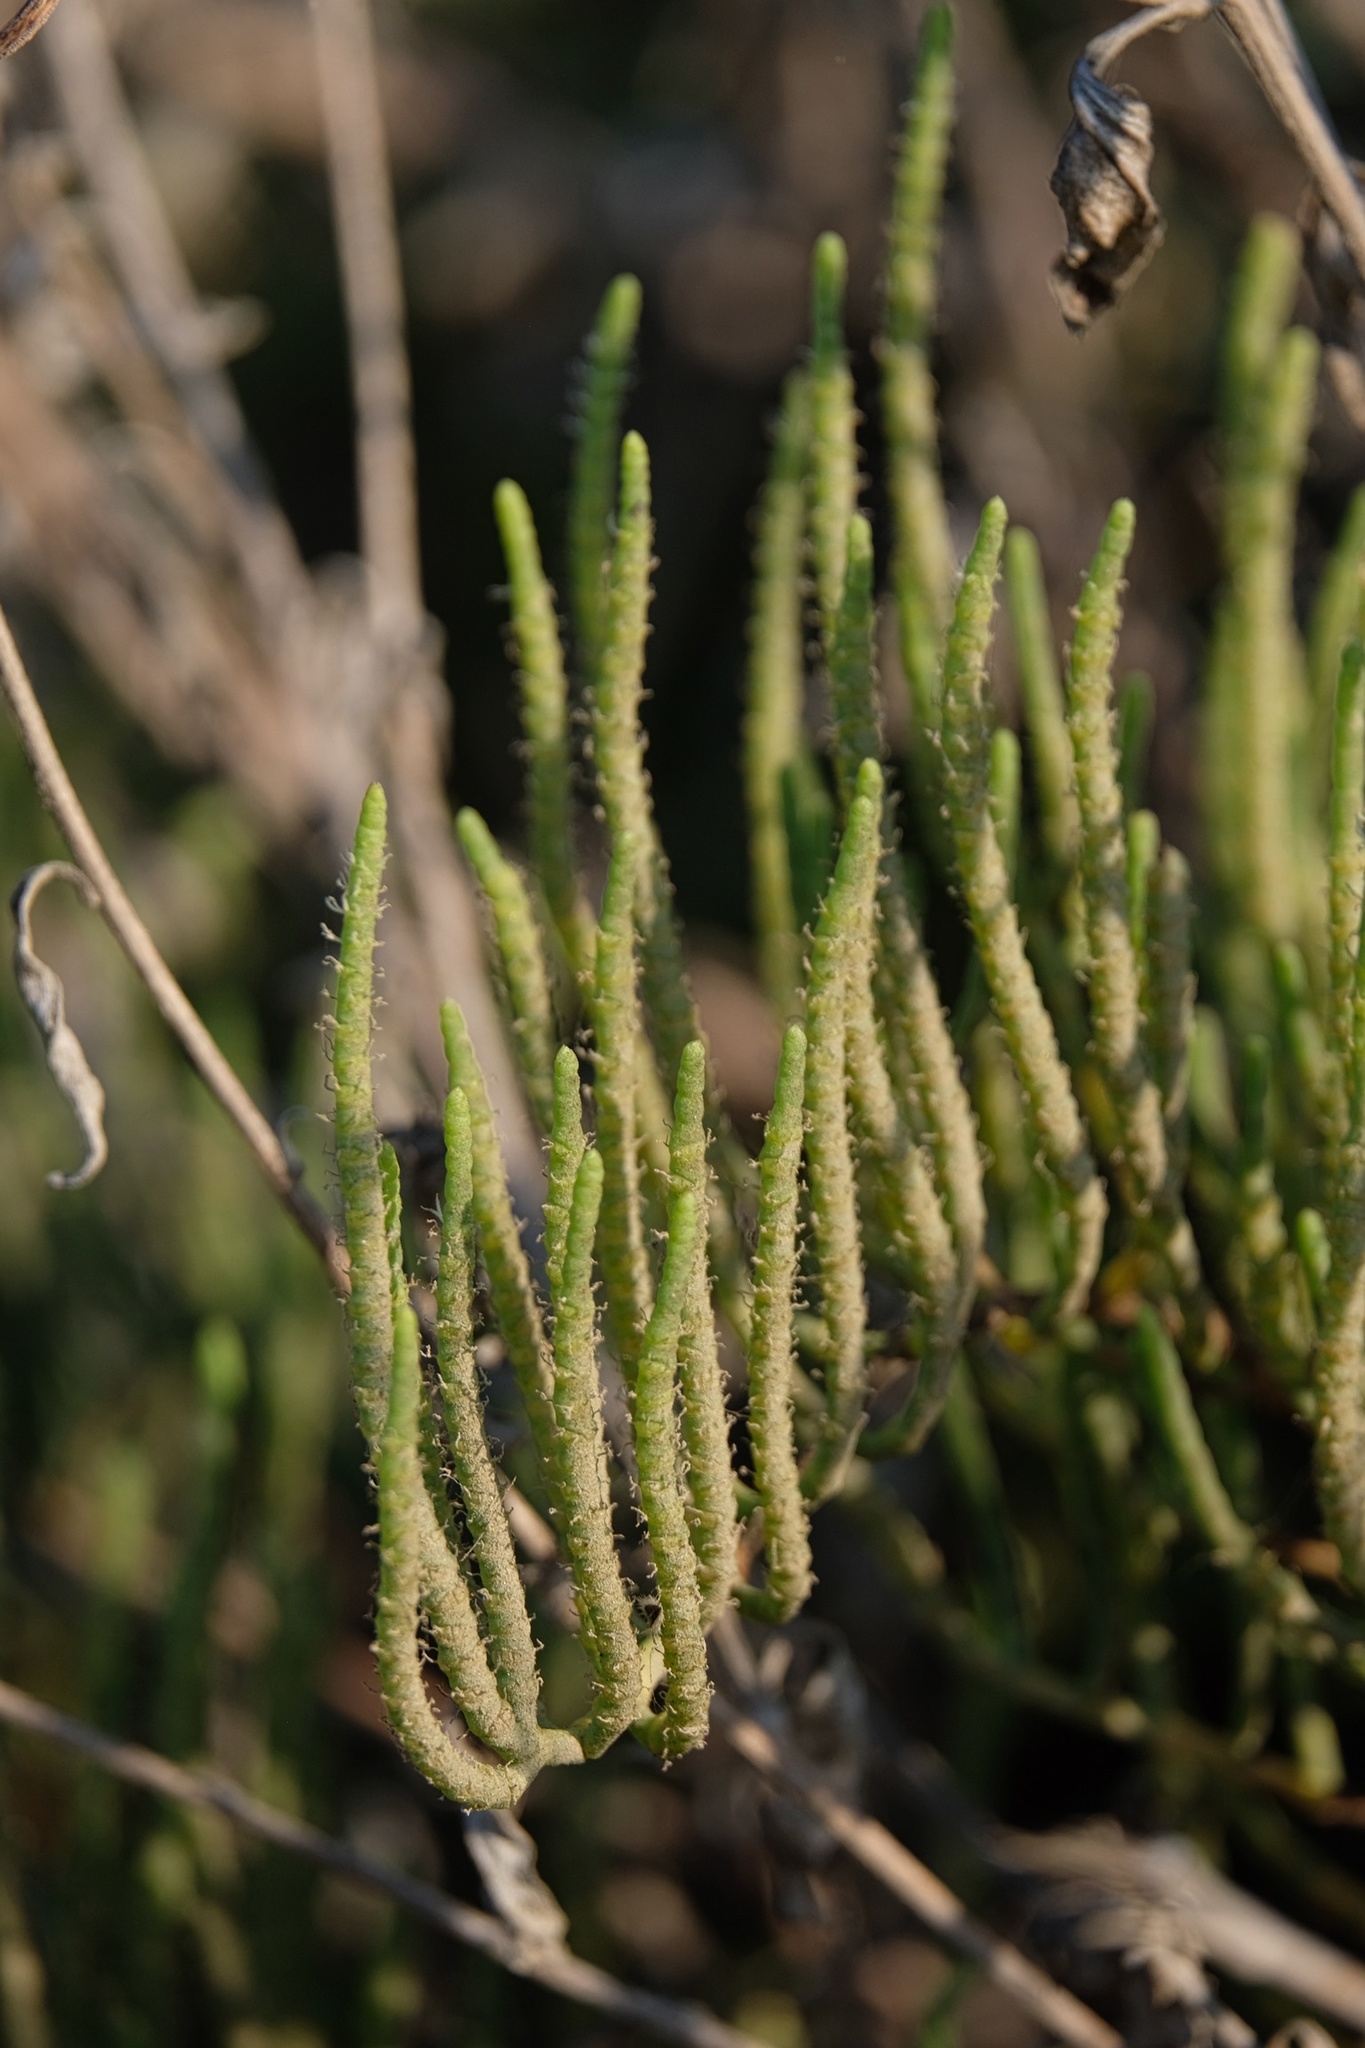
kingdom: Plantae
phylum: Tracheophyta
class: Magnoliopsida
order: Caryophyllales
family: Amaranthaceae
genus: Salicornia
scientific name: Salicornia pacifica
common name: Pacific glasswort
